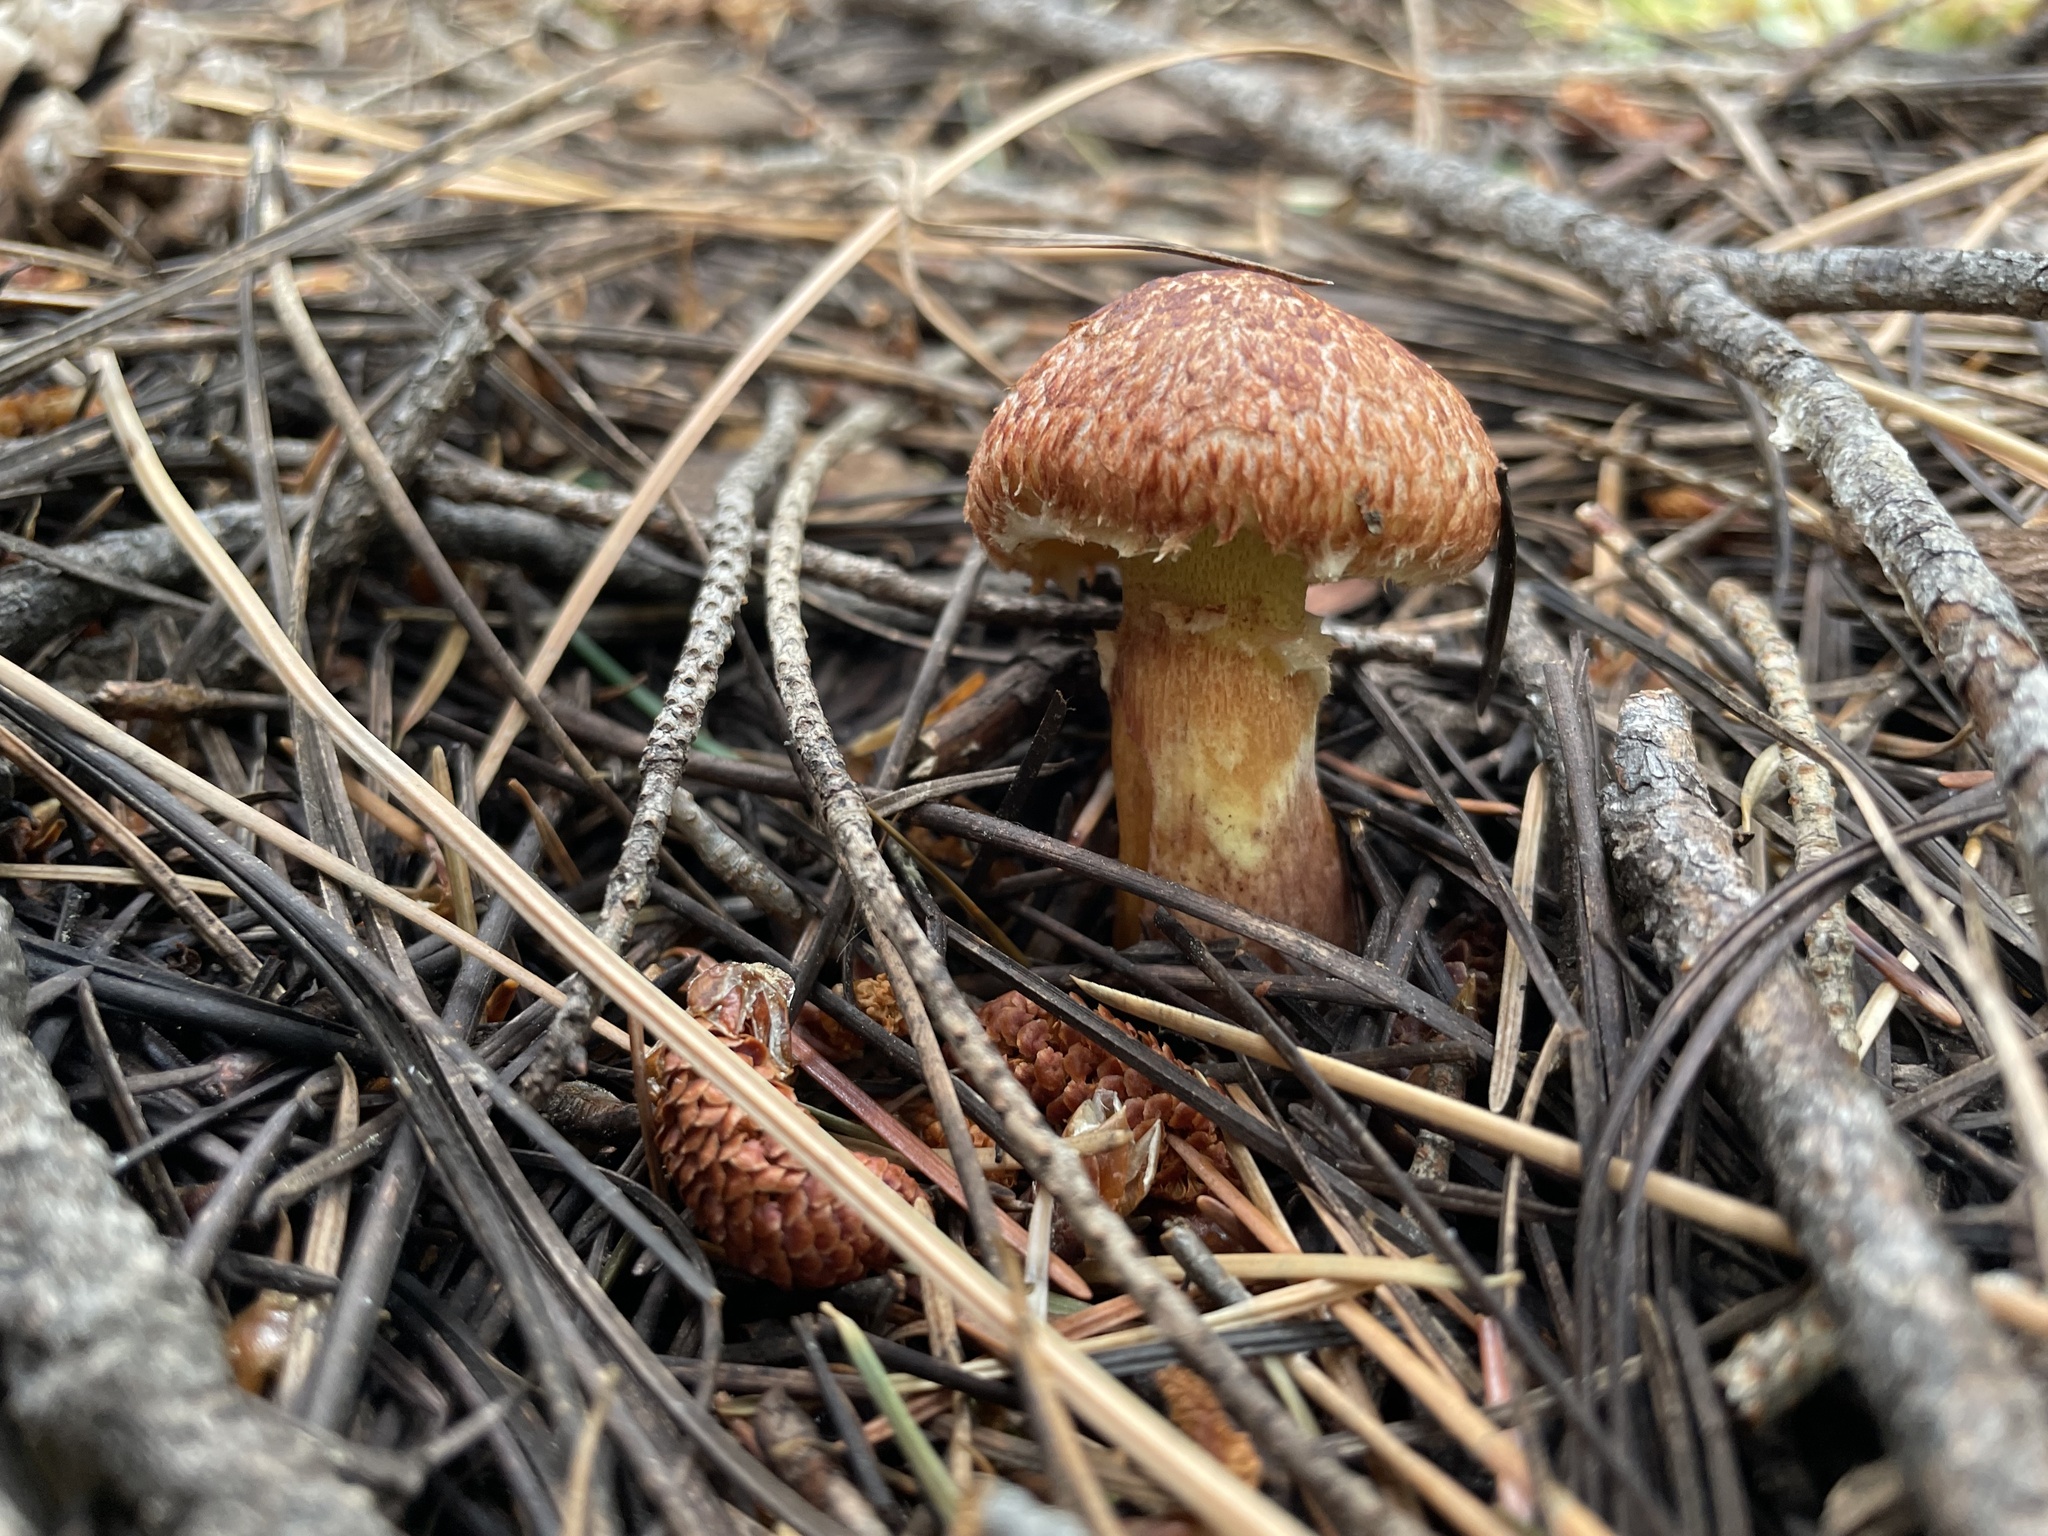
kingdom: Fungi
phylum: Basidiomycota
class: Agaricomycetes
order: Boletales
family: Suillaceae
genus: Suillus
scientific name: Suillus lakei
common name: Western painted suillus
